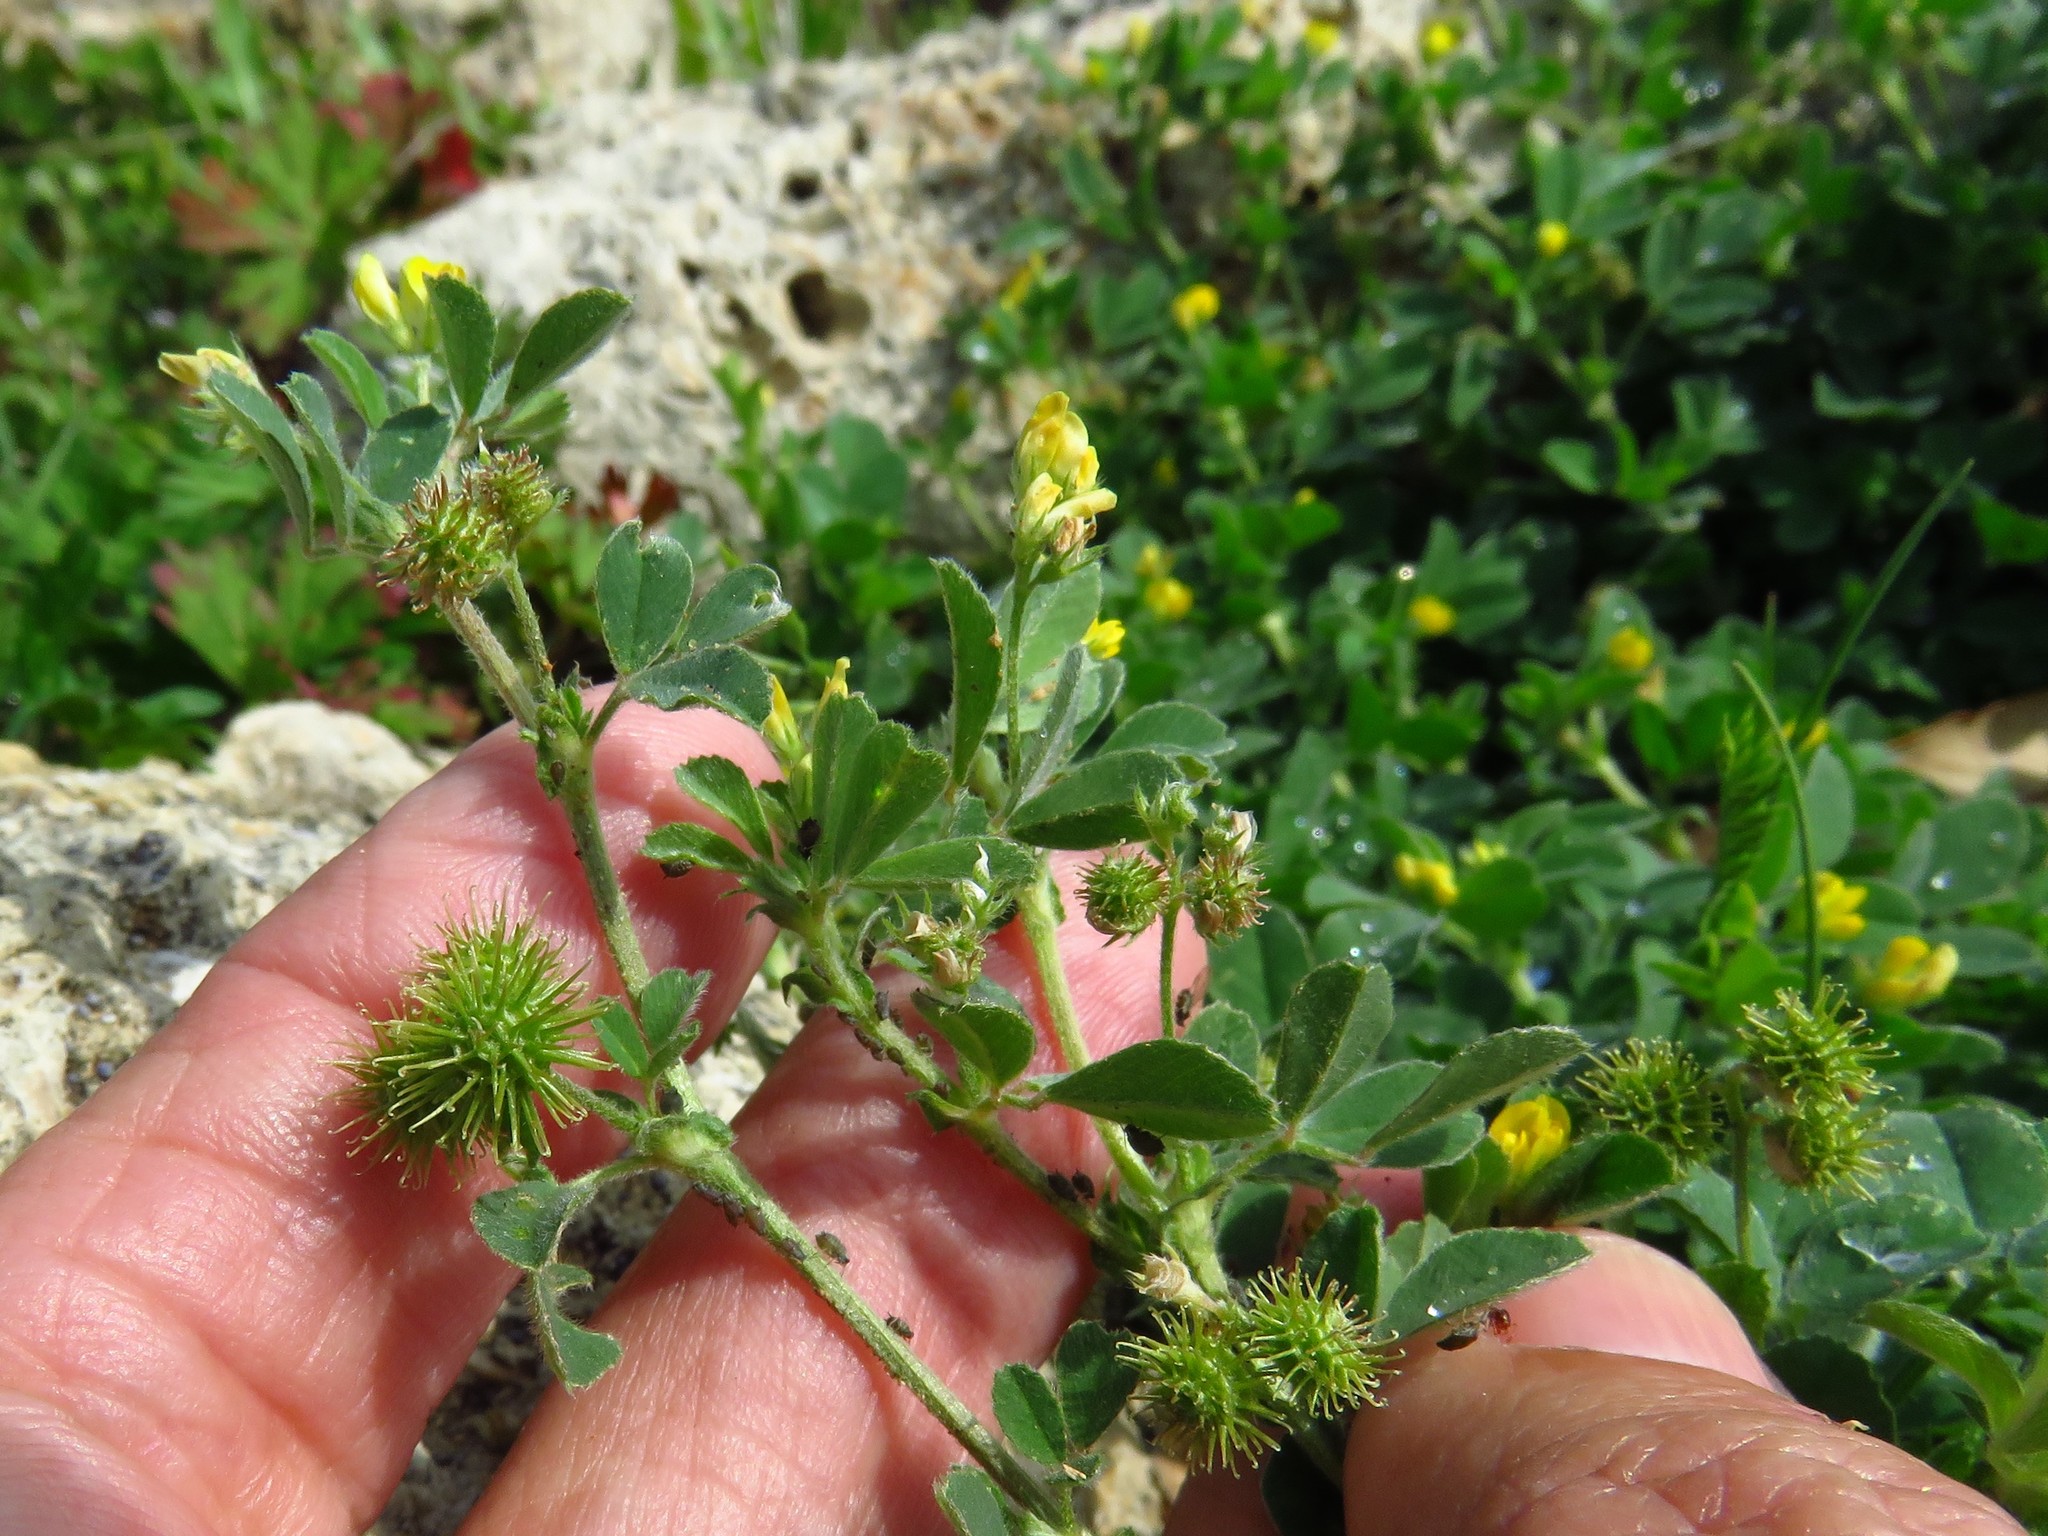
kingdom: Plantae
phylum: Tracheophyta
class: Magnoliopsida
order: Fabales
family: Fabaceae
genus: Medicago
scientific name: Medicago minima
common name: Little bur-clover
